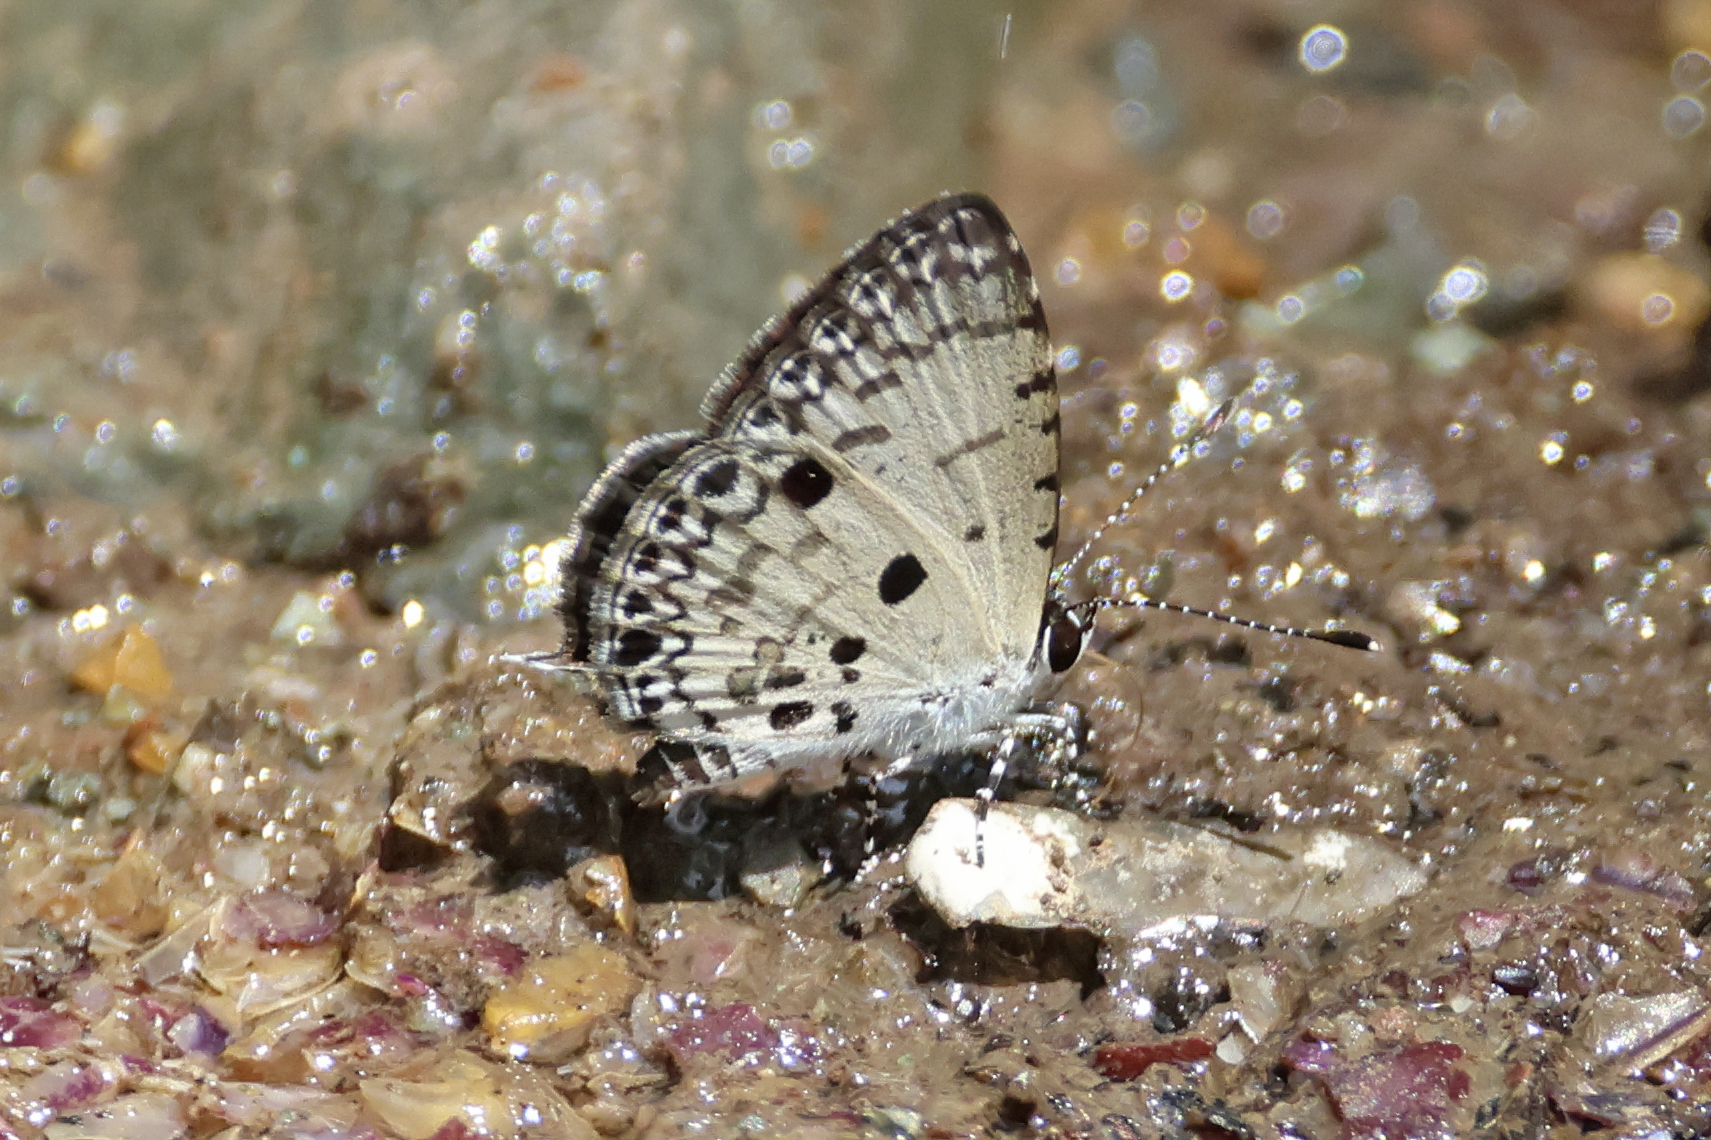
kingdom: Animalia
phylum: Arthropoda
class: Insecta
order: Lepidoptera
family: Lycaenidae
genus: Megisba
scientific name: Megisba malaya
